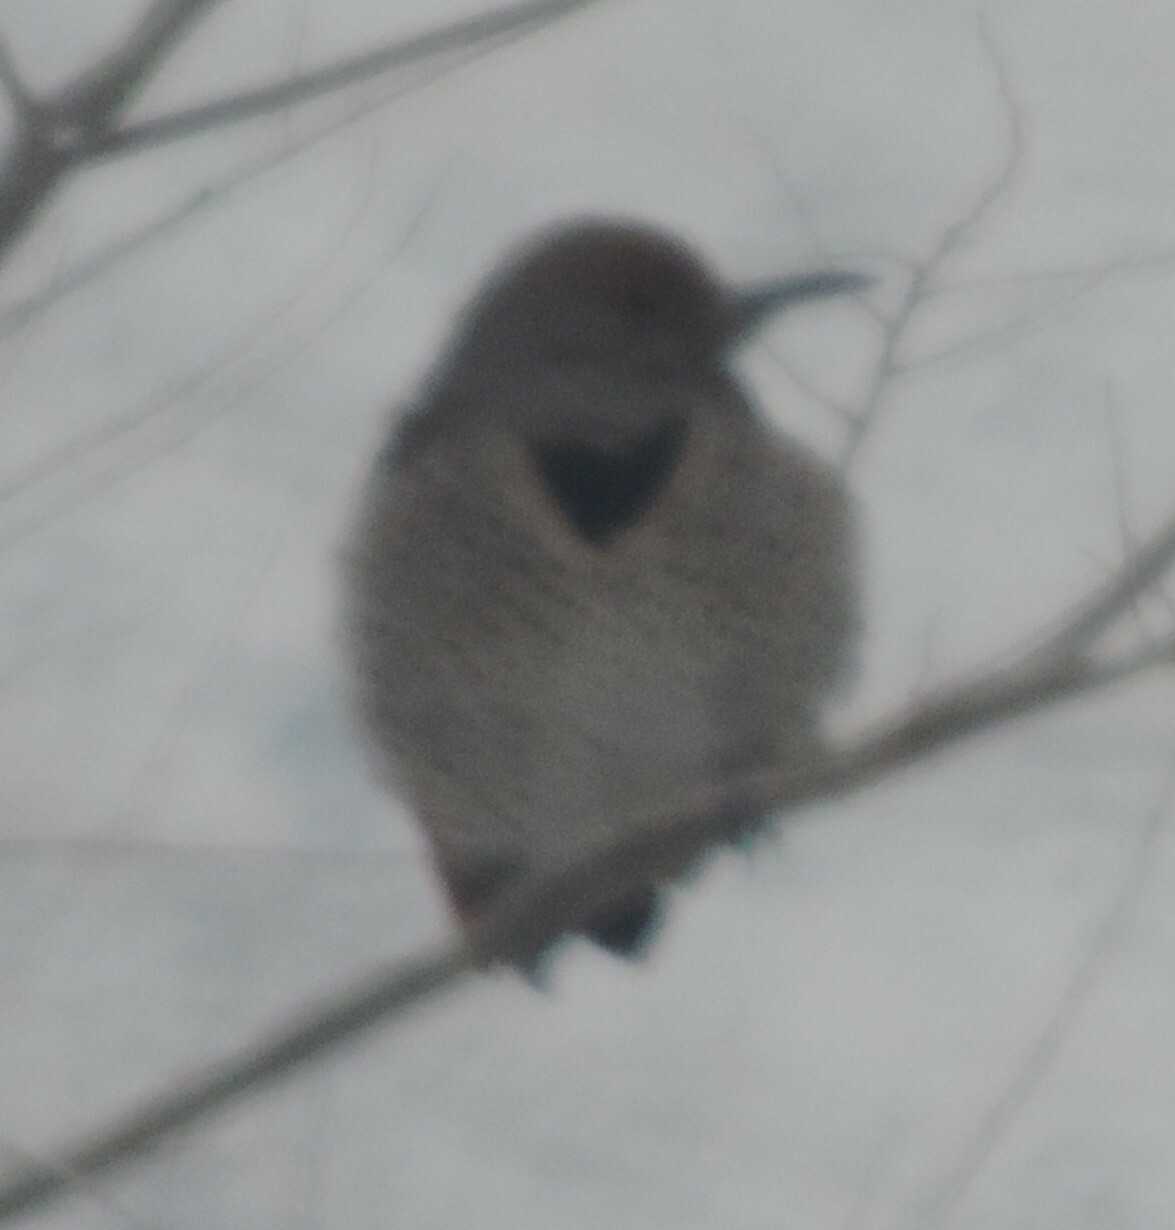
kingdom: Animalia
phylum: Chordata
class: Aves
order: Piciformes
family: Picidae
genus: Colaptes
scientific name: Colaptes auratus
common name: Northern flicker
